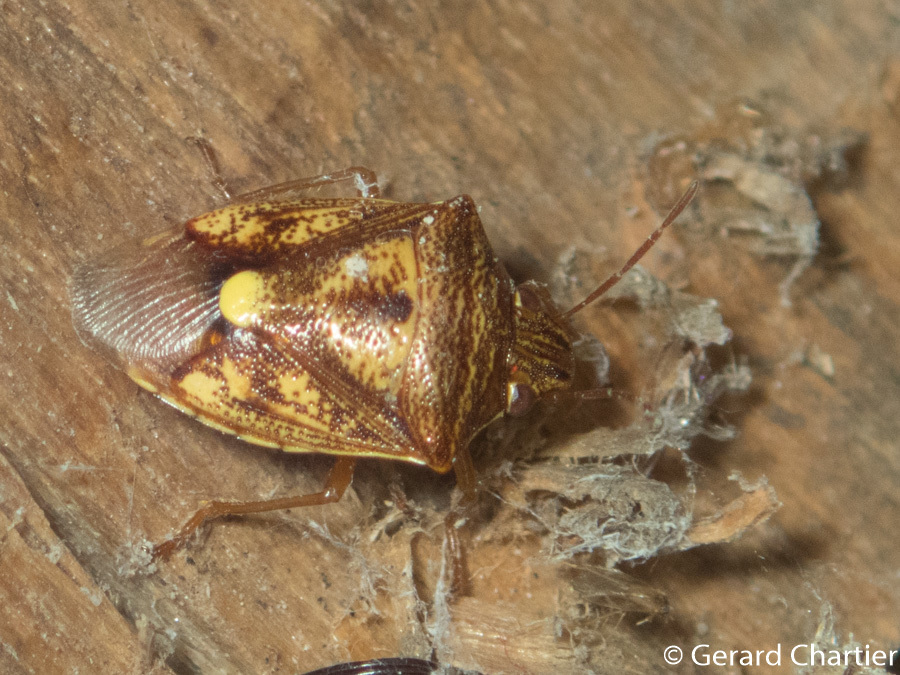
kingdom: Animalia
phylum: Arthropoda
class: Insecta
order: Hemiptera
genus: Starioides
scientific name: Starioides
